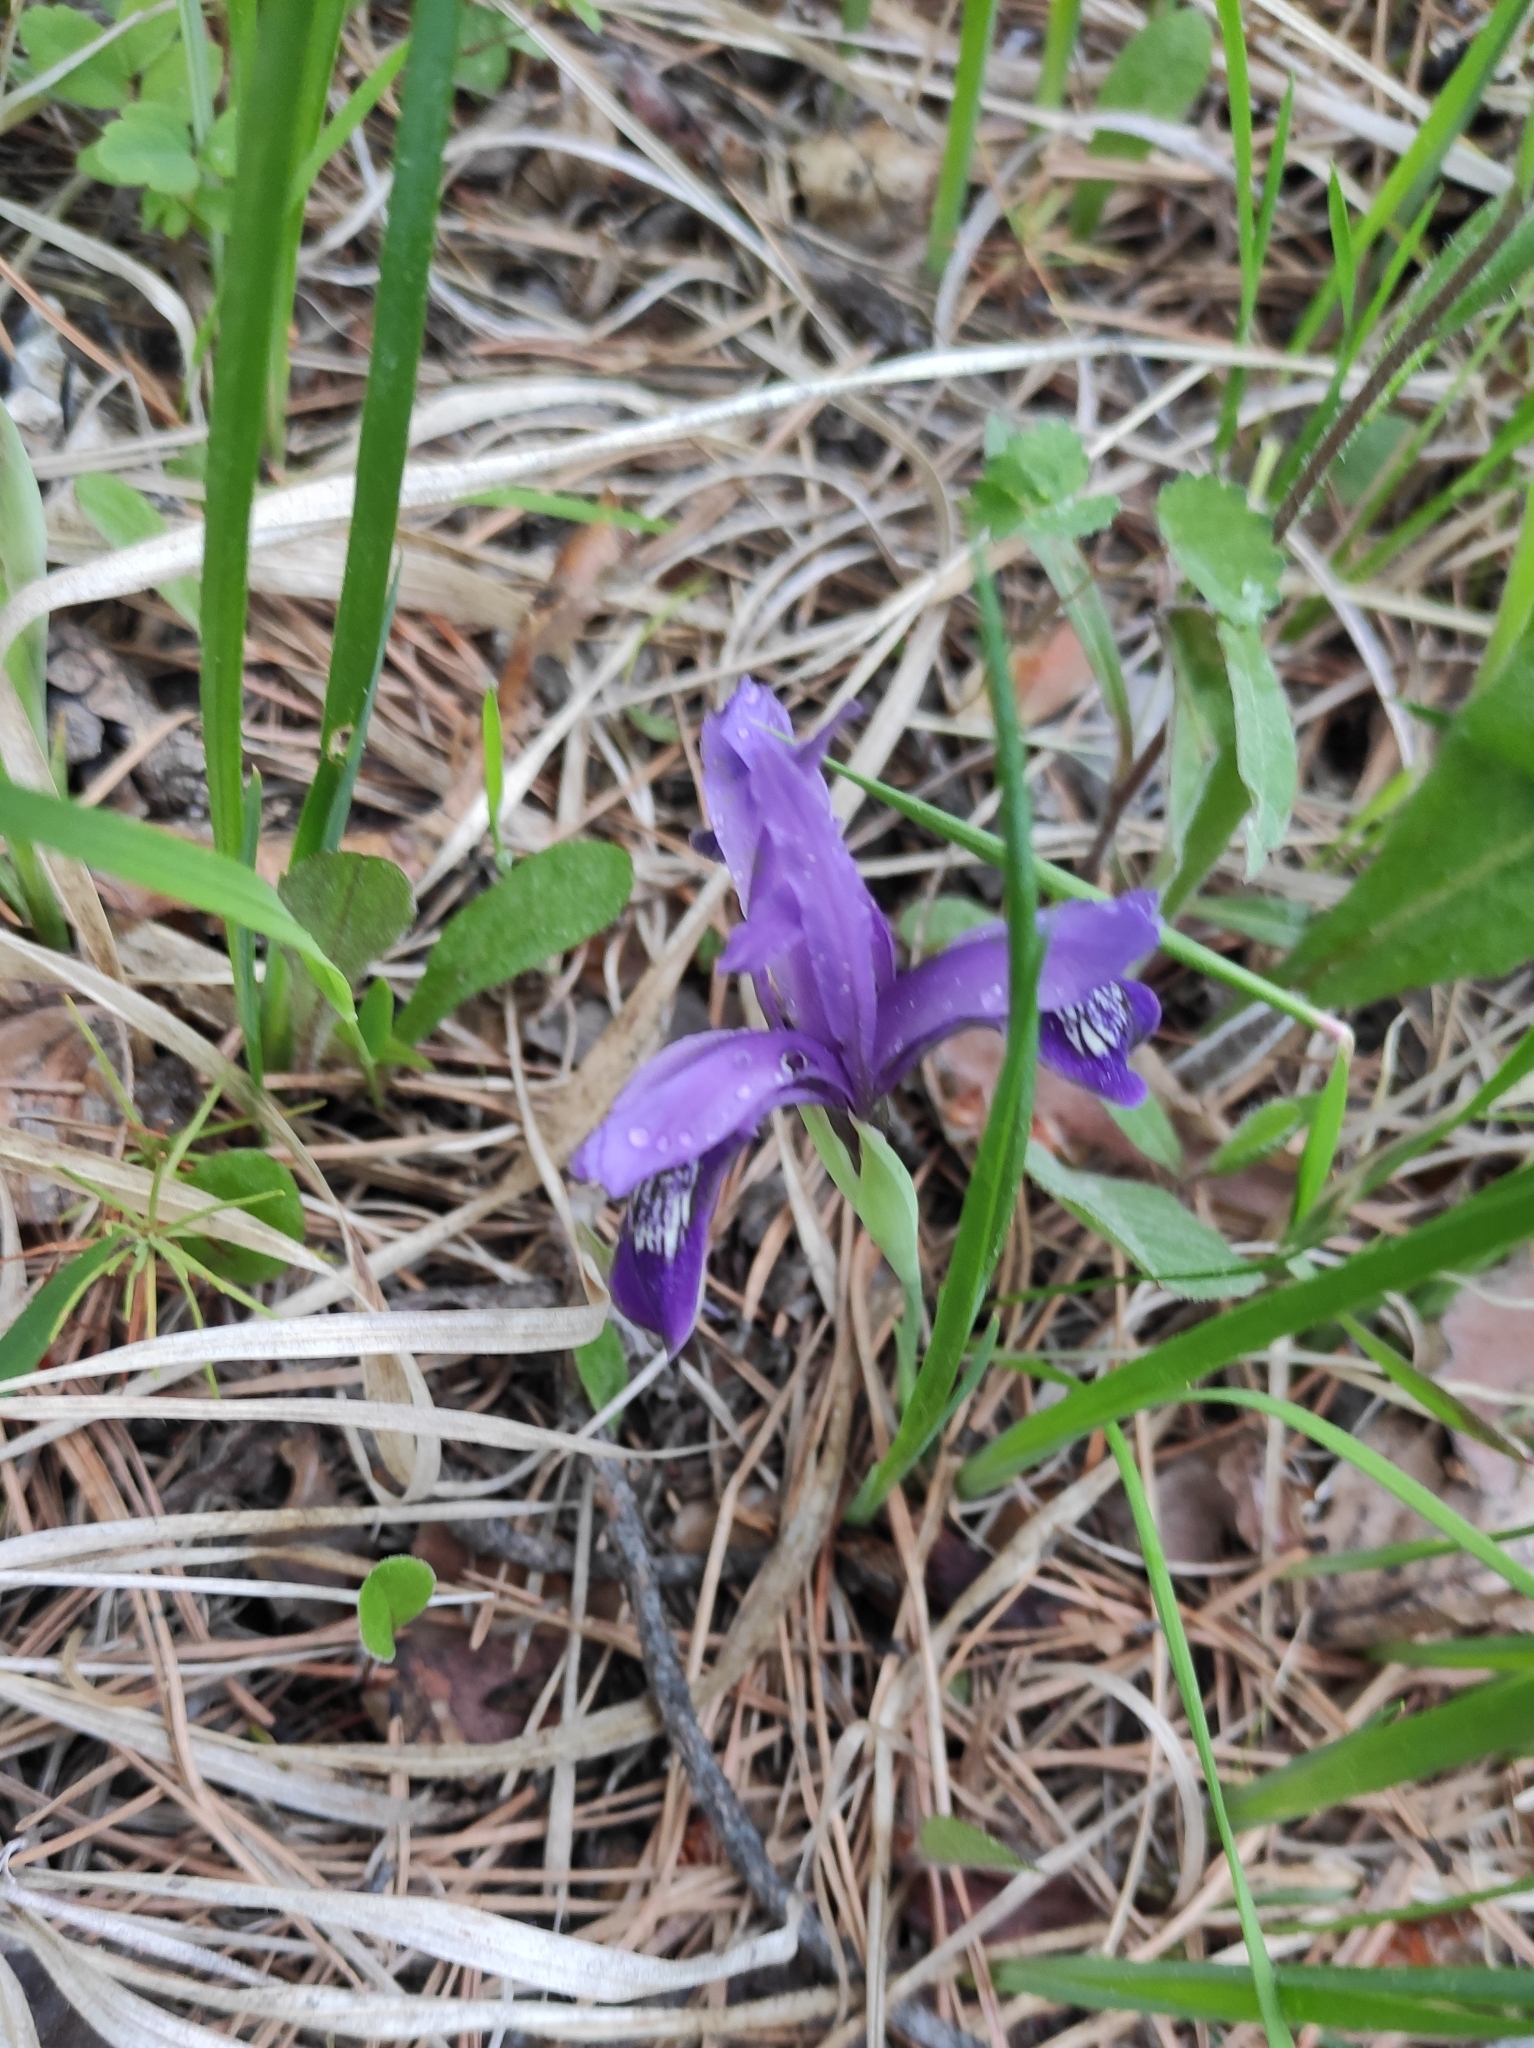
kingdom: Plantae
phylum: Tracheophyta
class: Liliopsida
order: Asparagales
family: Iridaceae
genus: Iris
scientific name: Iris ruthenica
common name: Purple-bract iris
